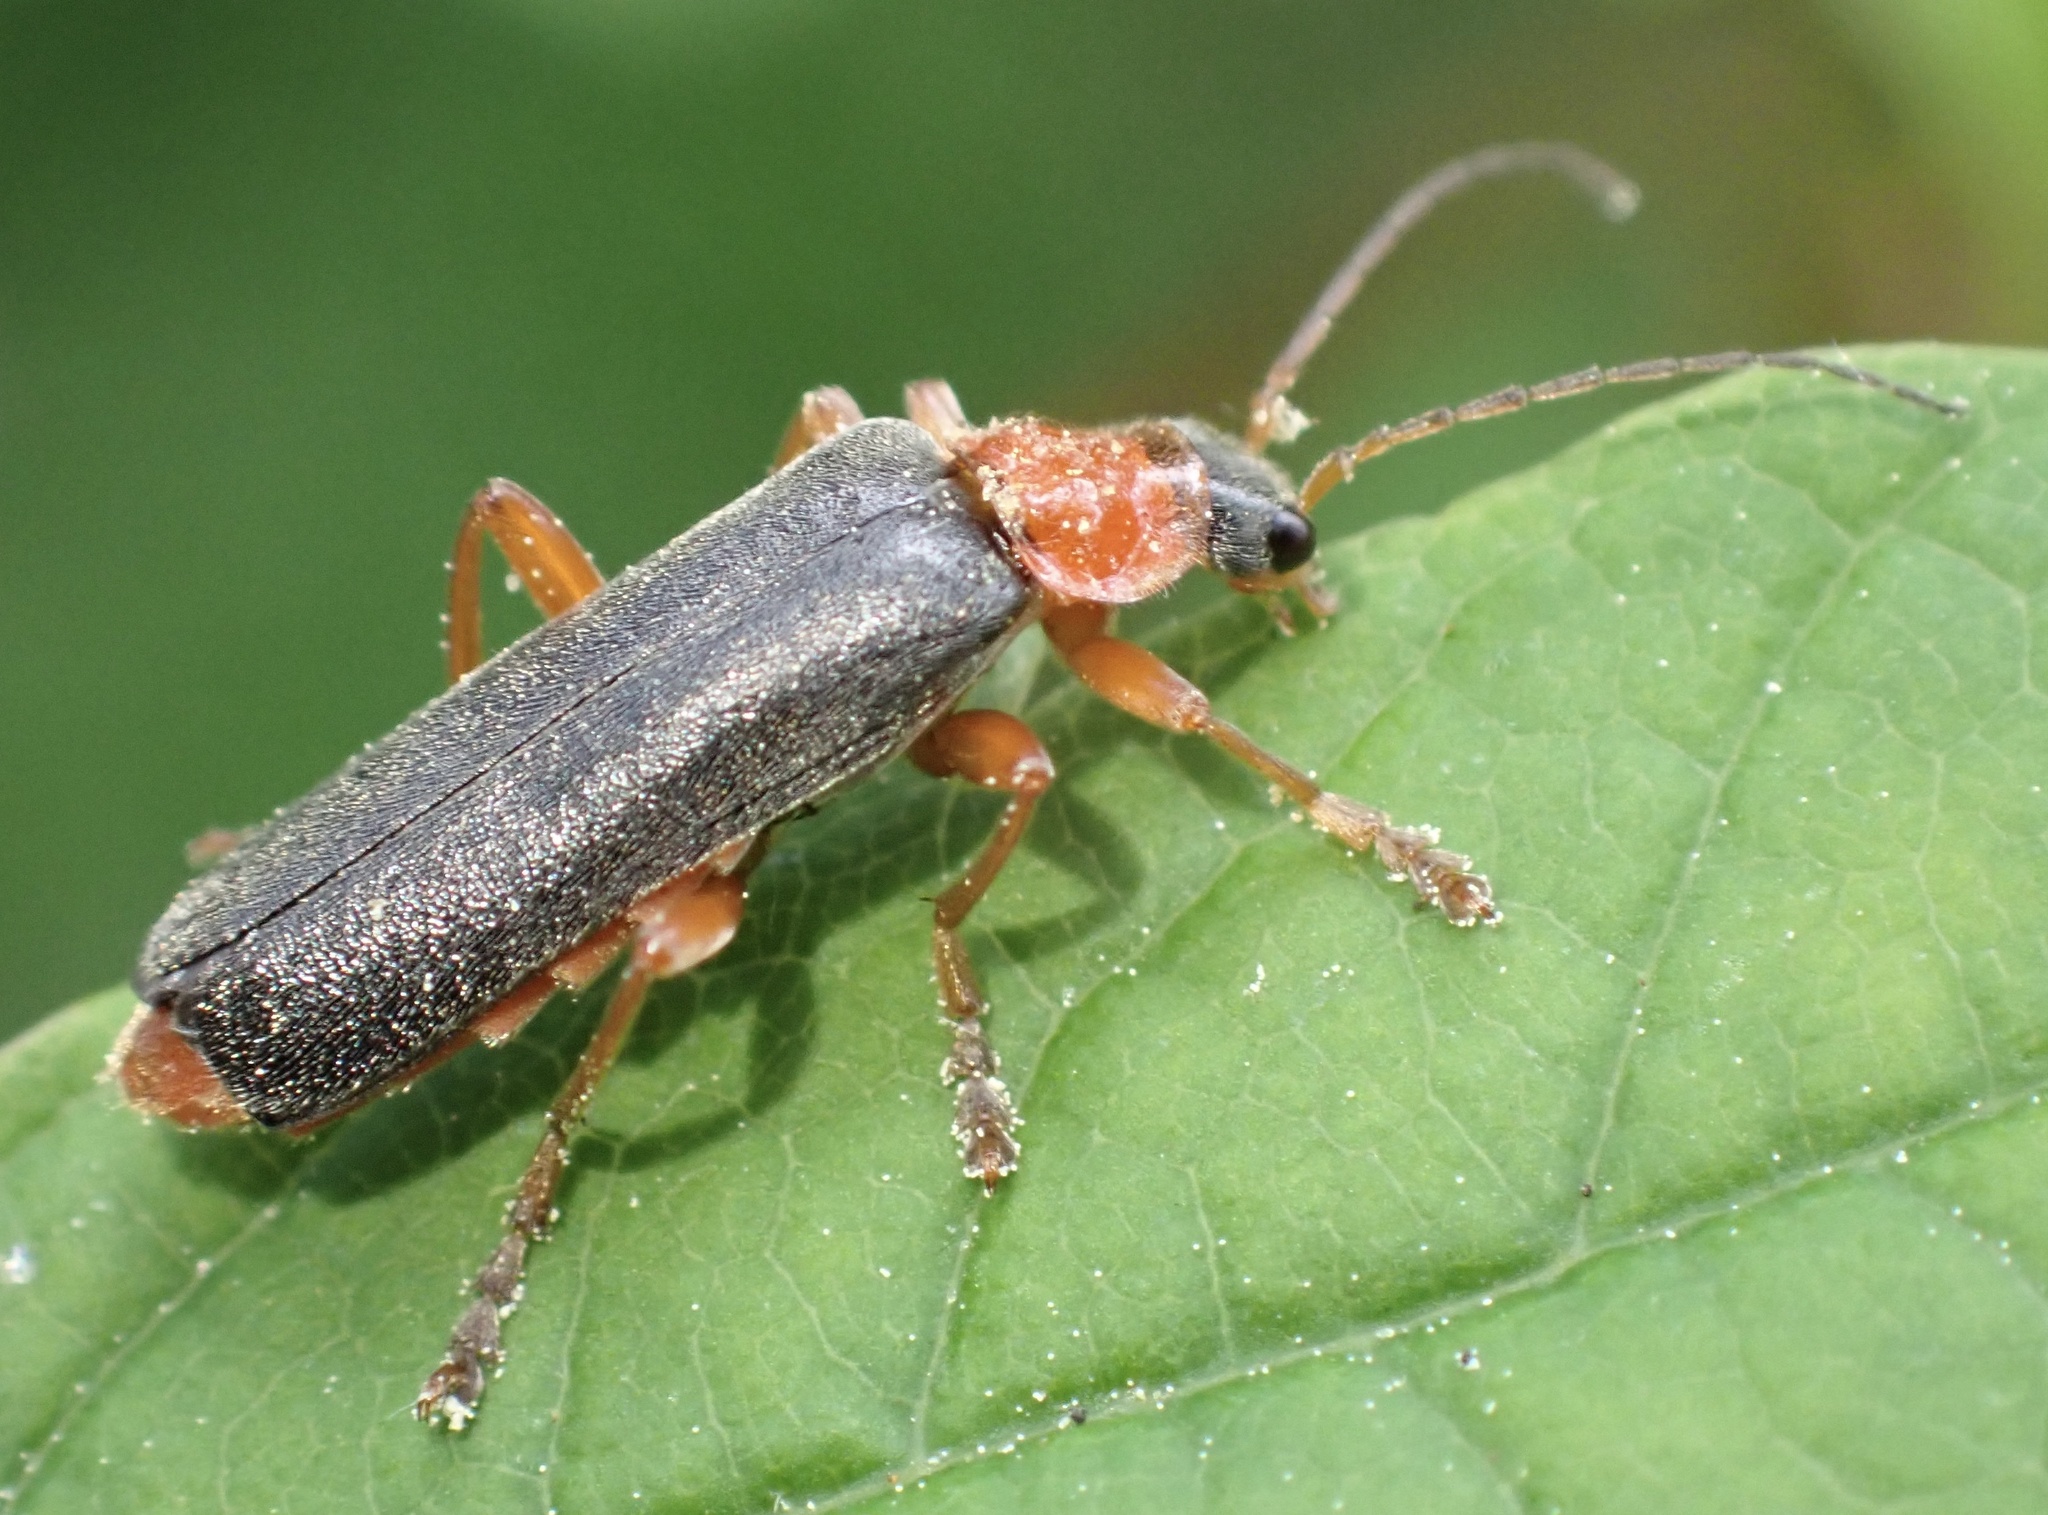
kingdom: Animalia
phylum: Arthropoda
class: Insecta
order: Coleoptera
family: Cantharidae
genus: Cantharis
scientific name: Cantharis pellucida
